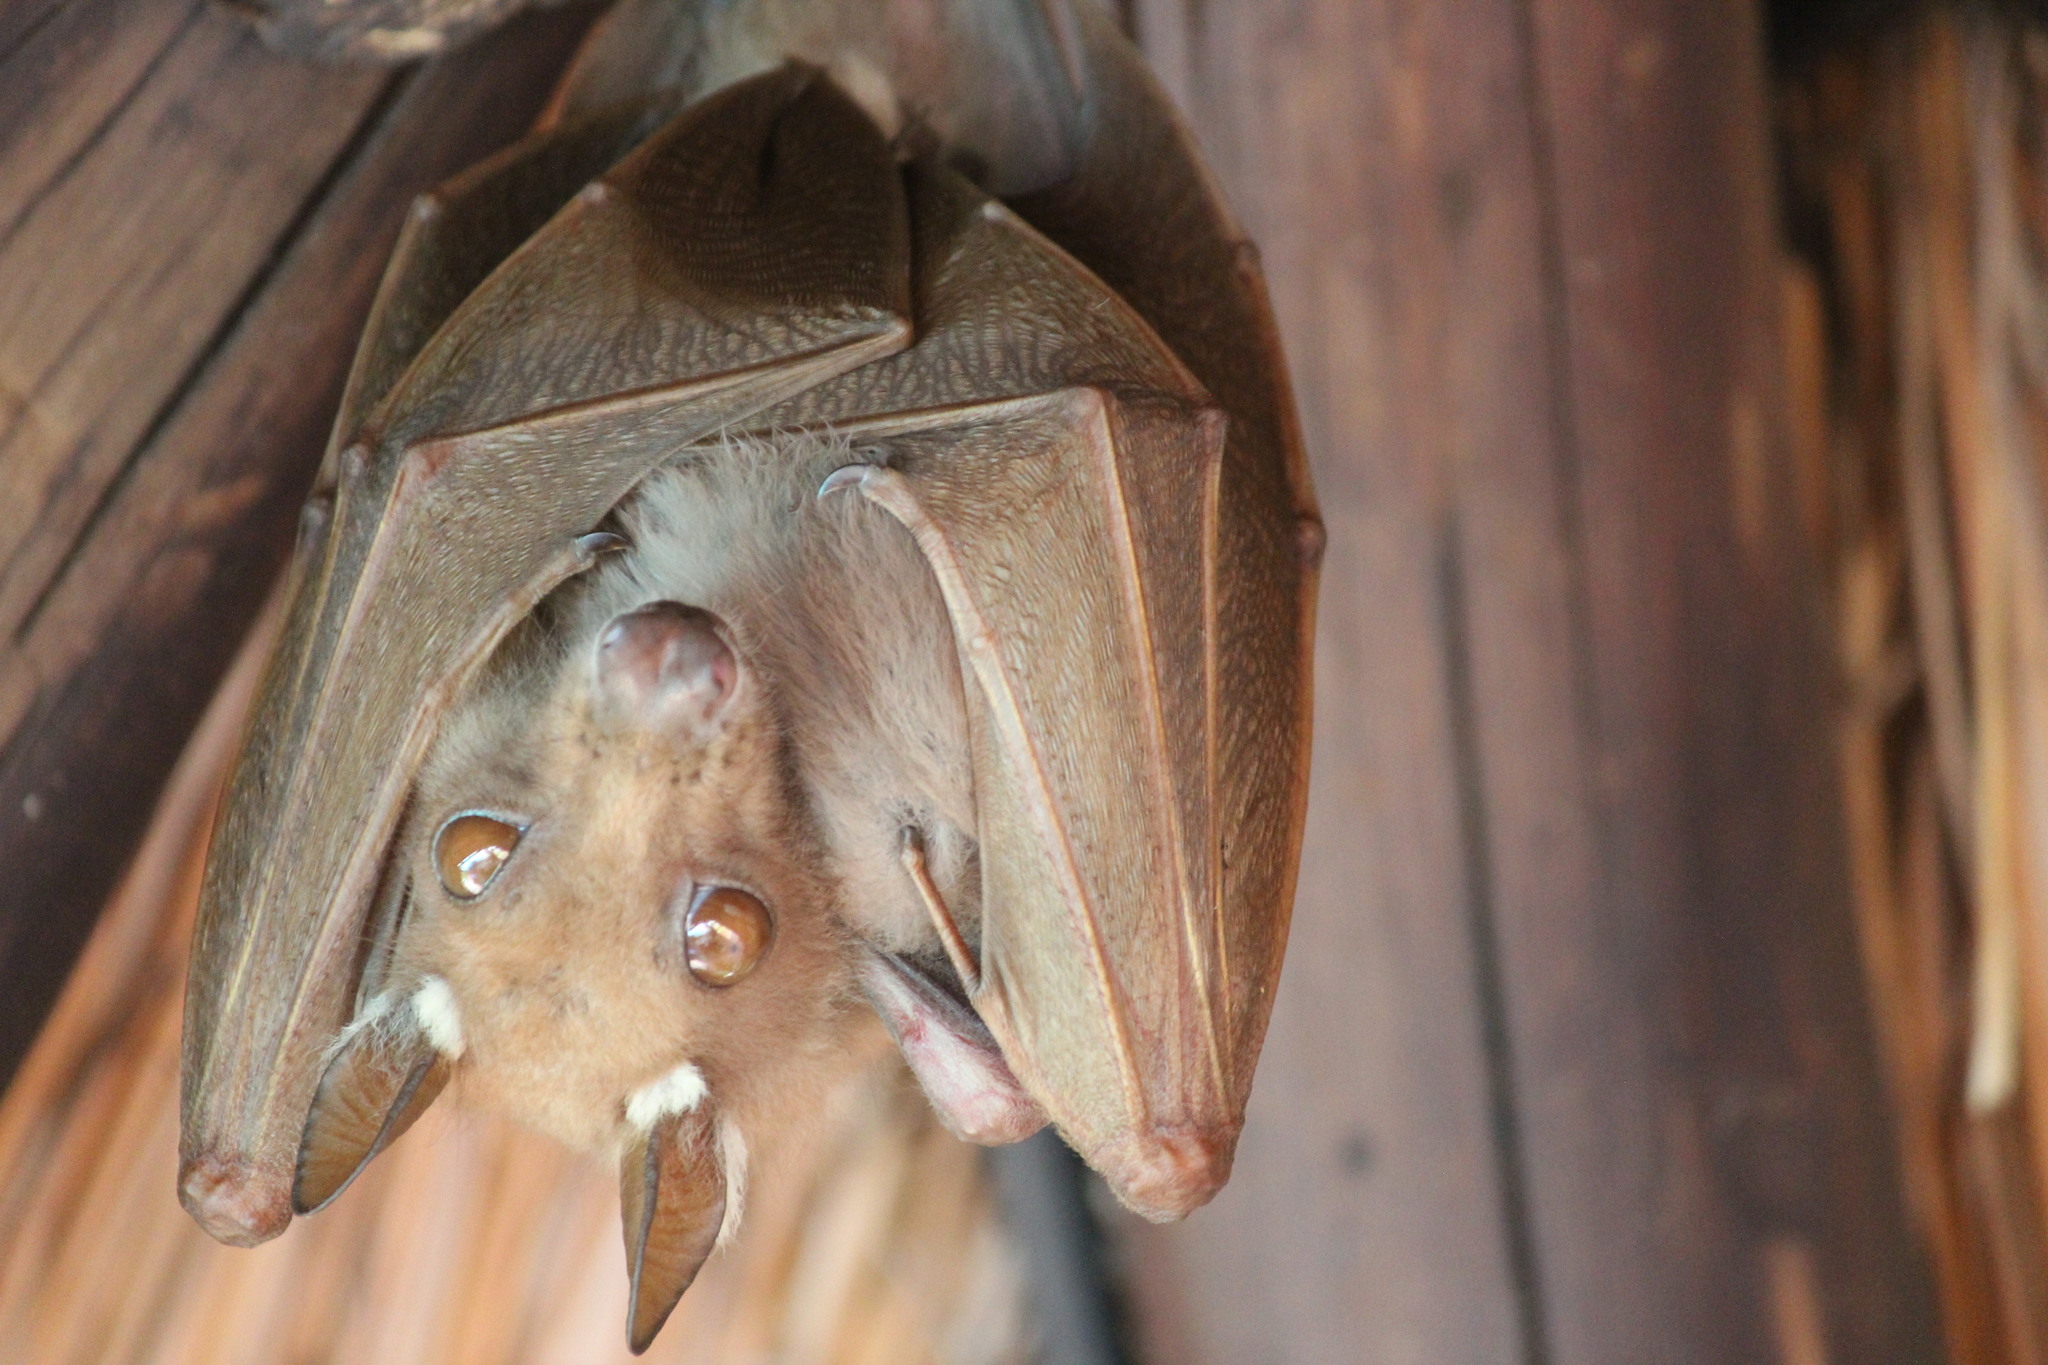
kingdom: Animalia
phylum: Chordata
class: Mammalia
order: Chiroptera
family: Pteropodidae
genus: Epomophorus
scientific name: Epomophorus wahlbergi
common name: Wahlberg's epauletted fruit bat
